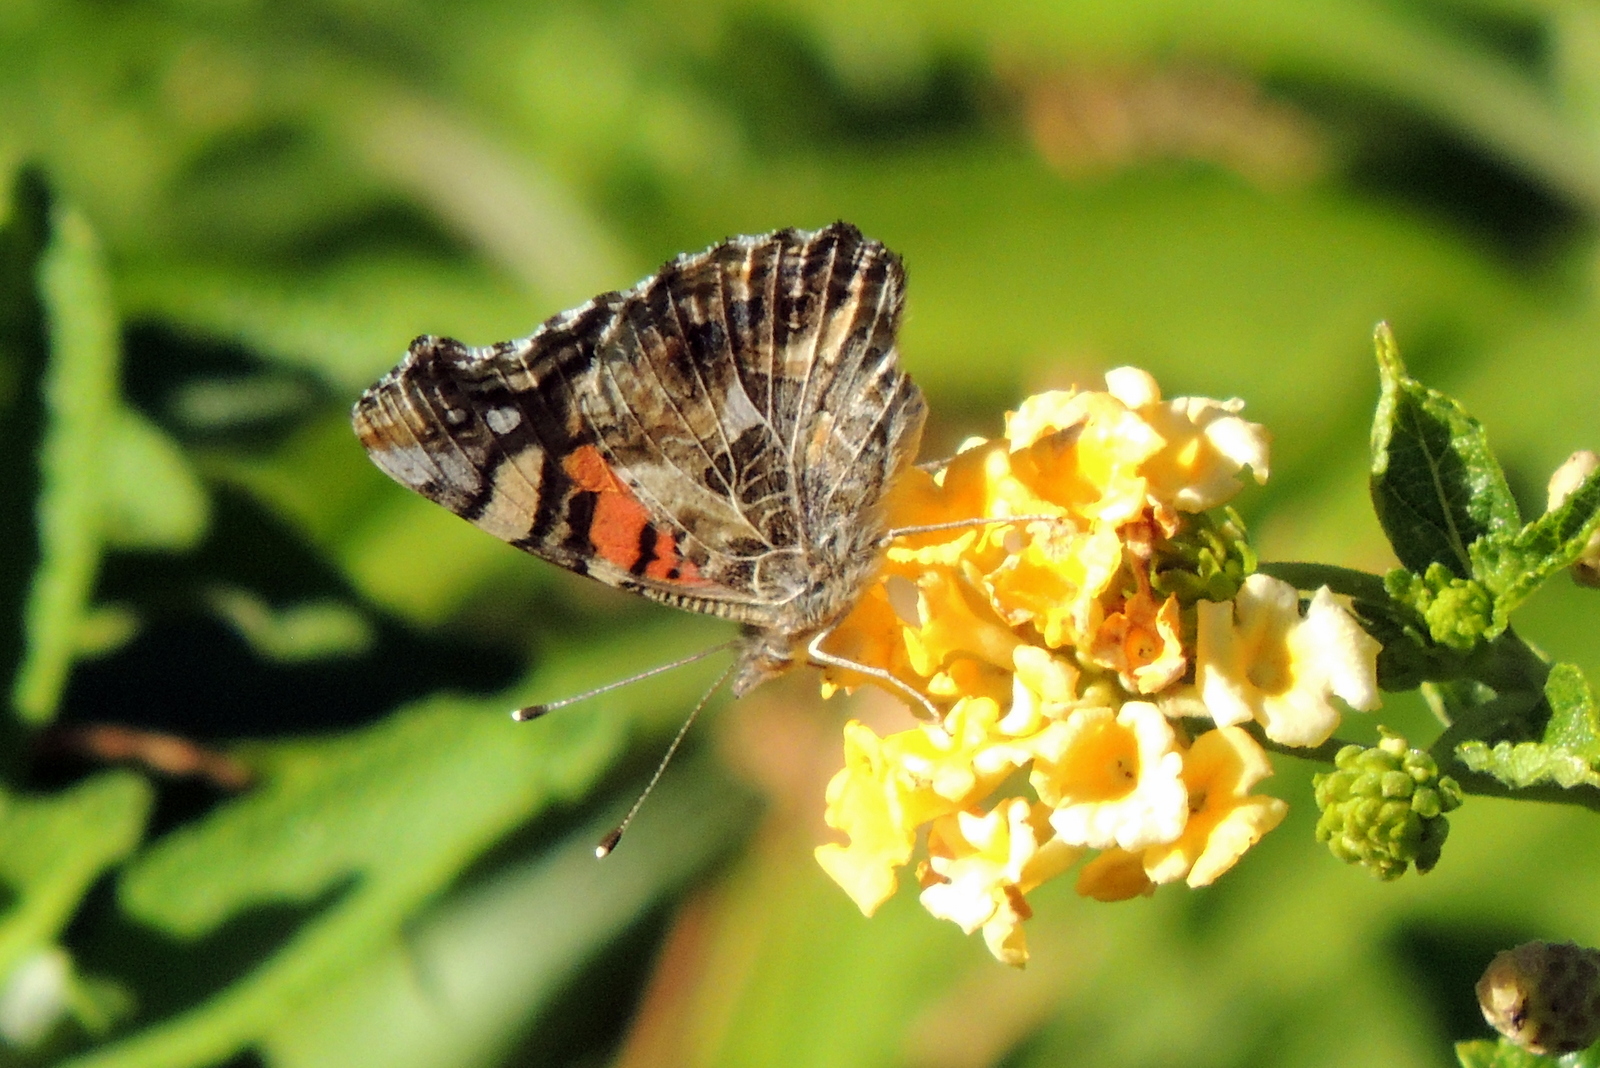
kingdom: Animalia
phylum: Arthropoda
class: Insecta
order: Lepidoptera
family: Nymphalidae
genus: Vanessa
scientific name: Vanessa annabella
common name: West coast lady
